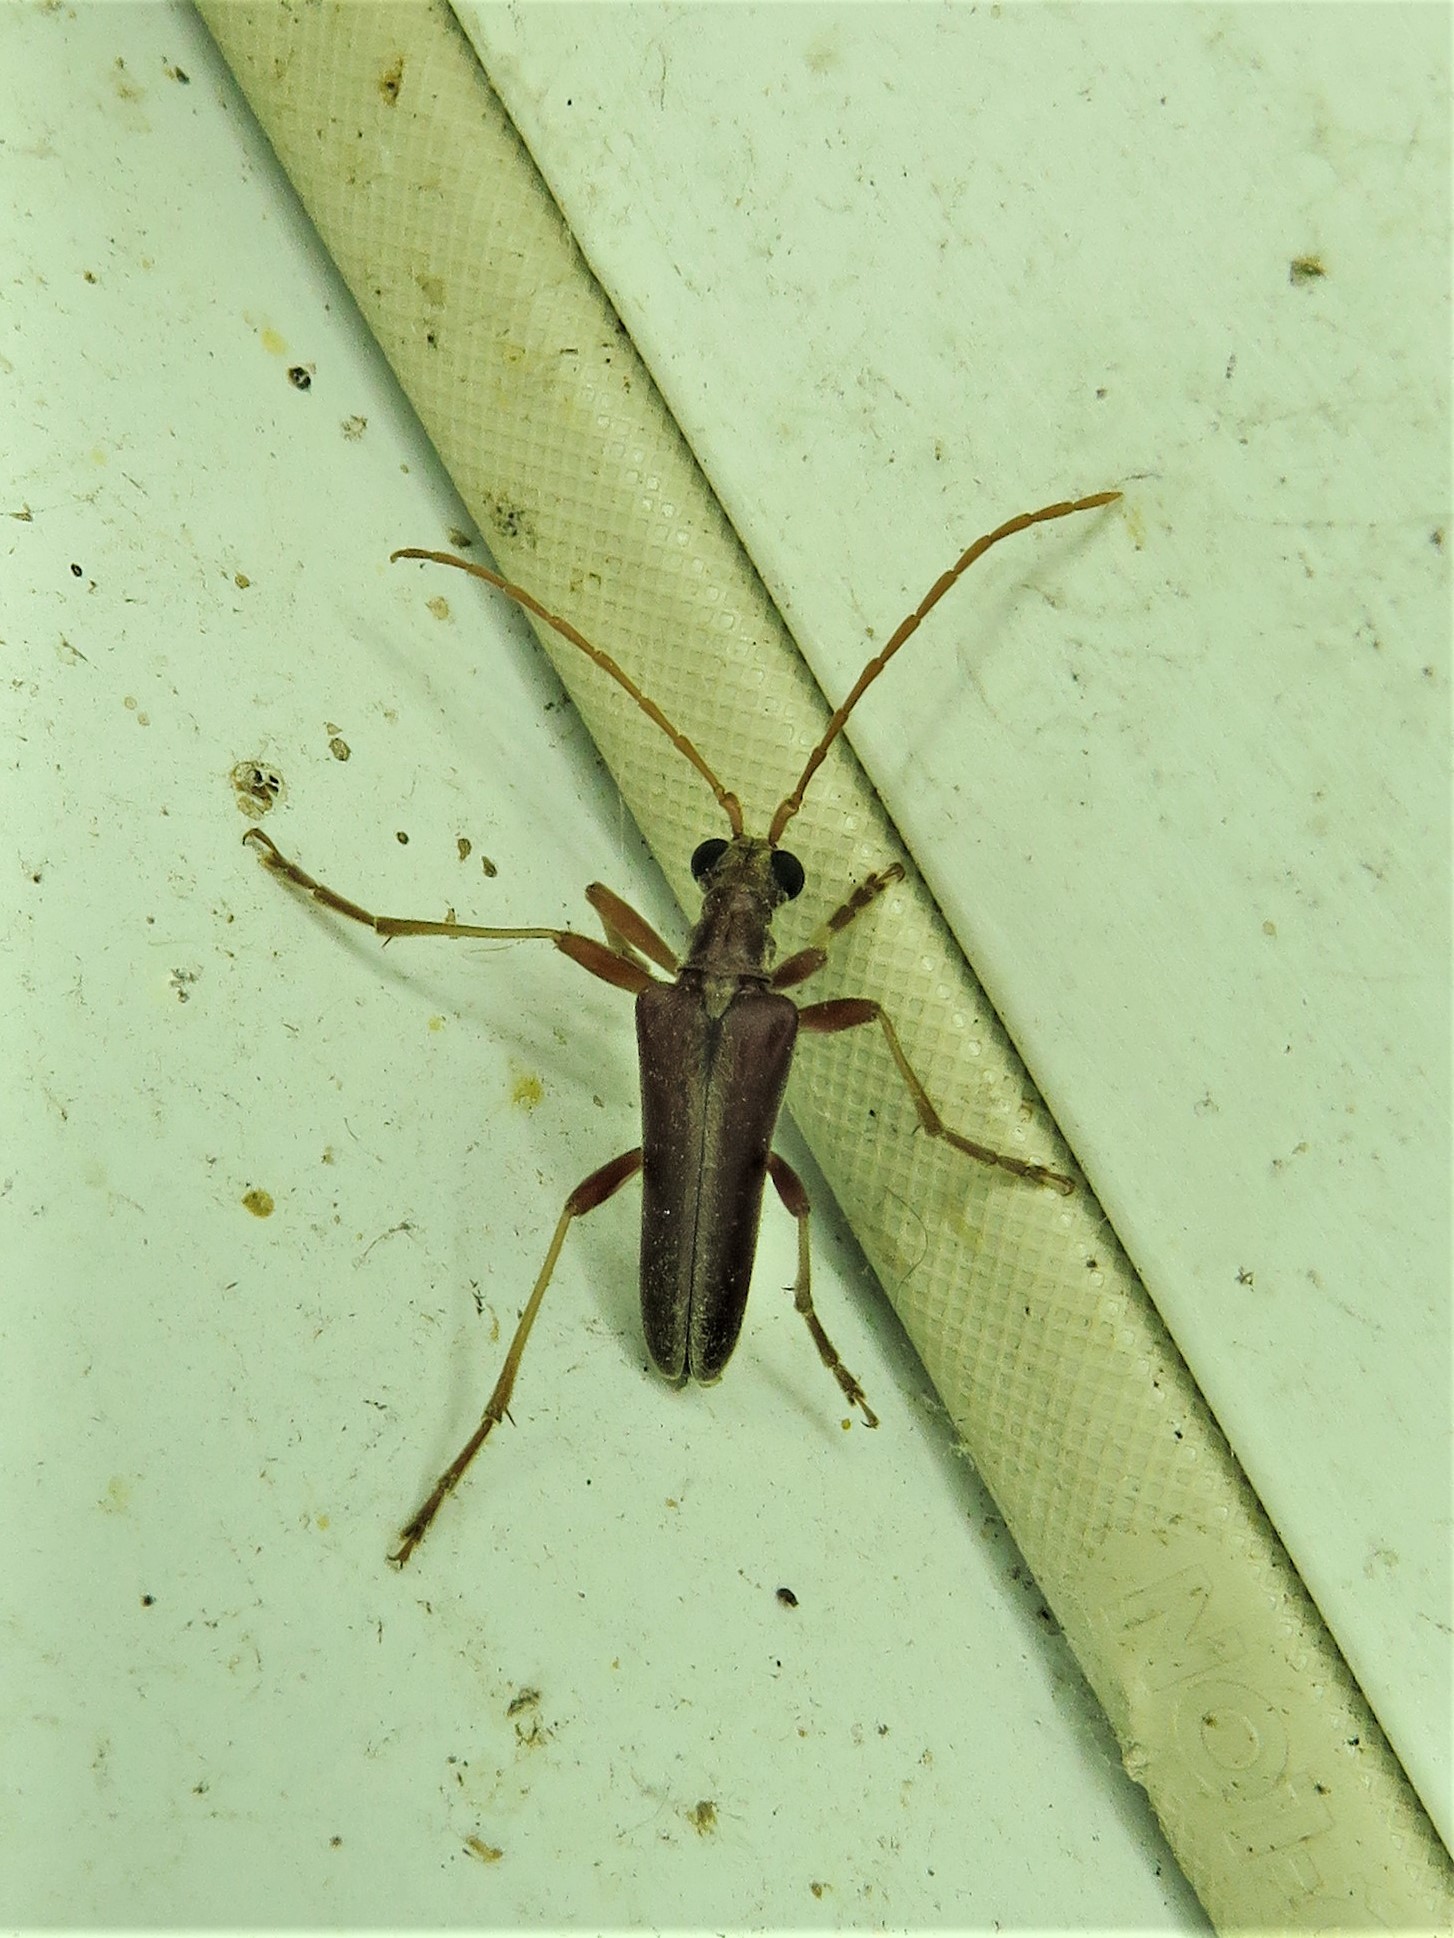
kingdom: Animalia
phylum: Arthropoda
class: Insecta
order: Coleoptera
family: Cerambycidae
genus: Stenocorus
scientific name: Stenocorus cinnamopterus
